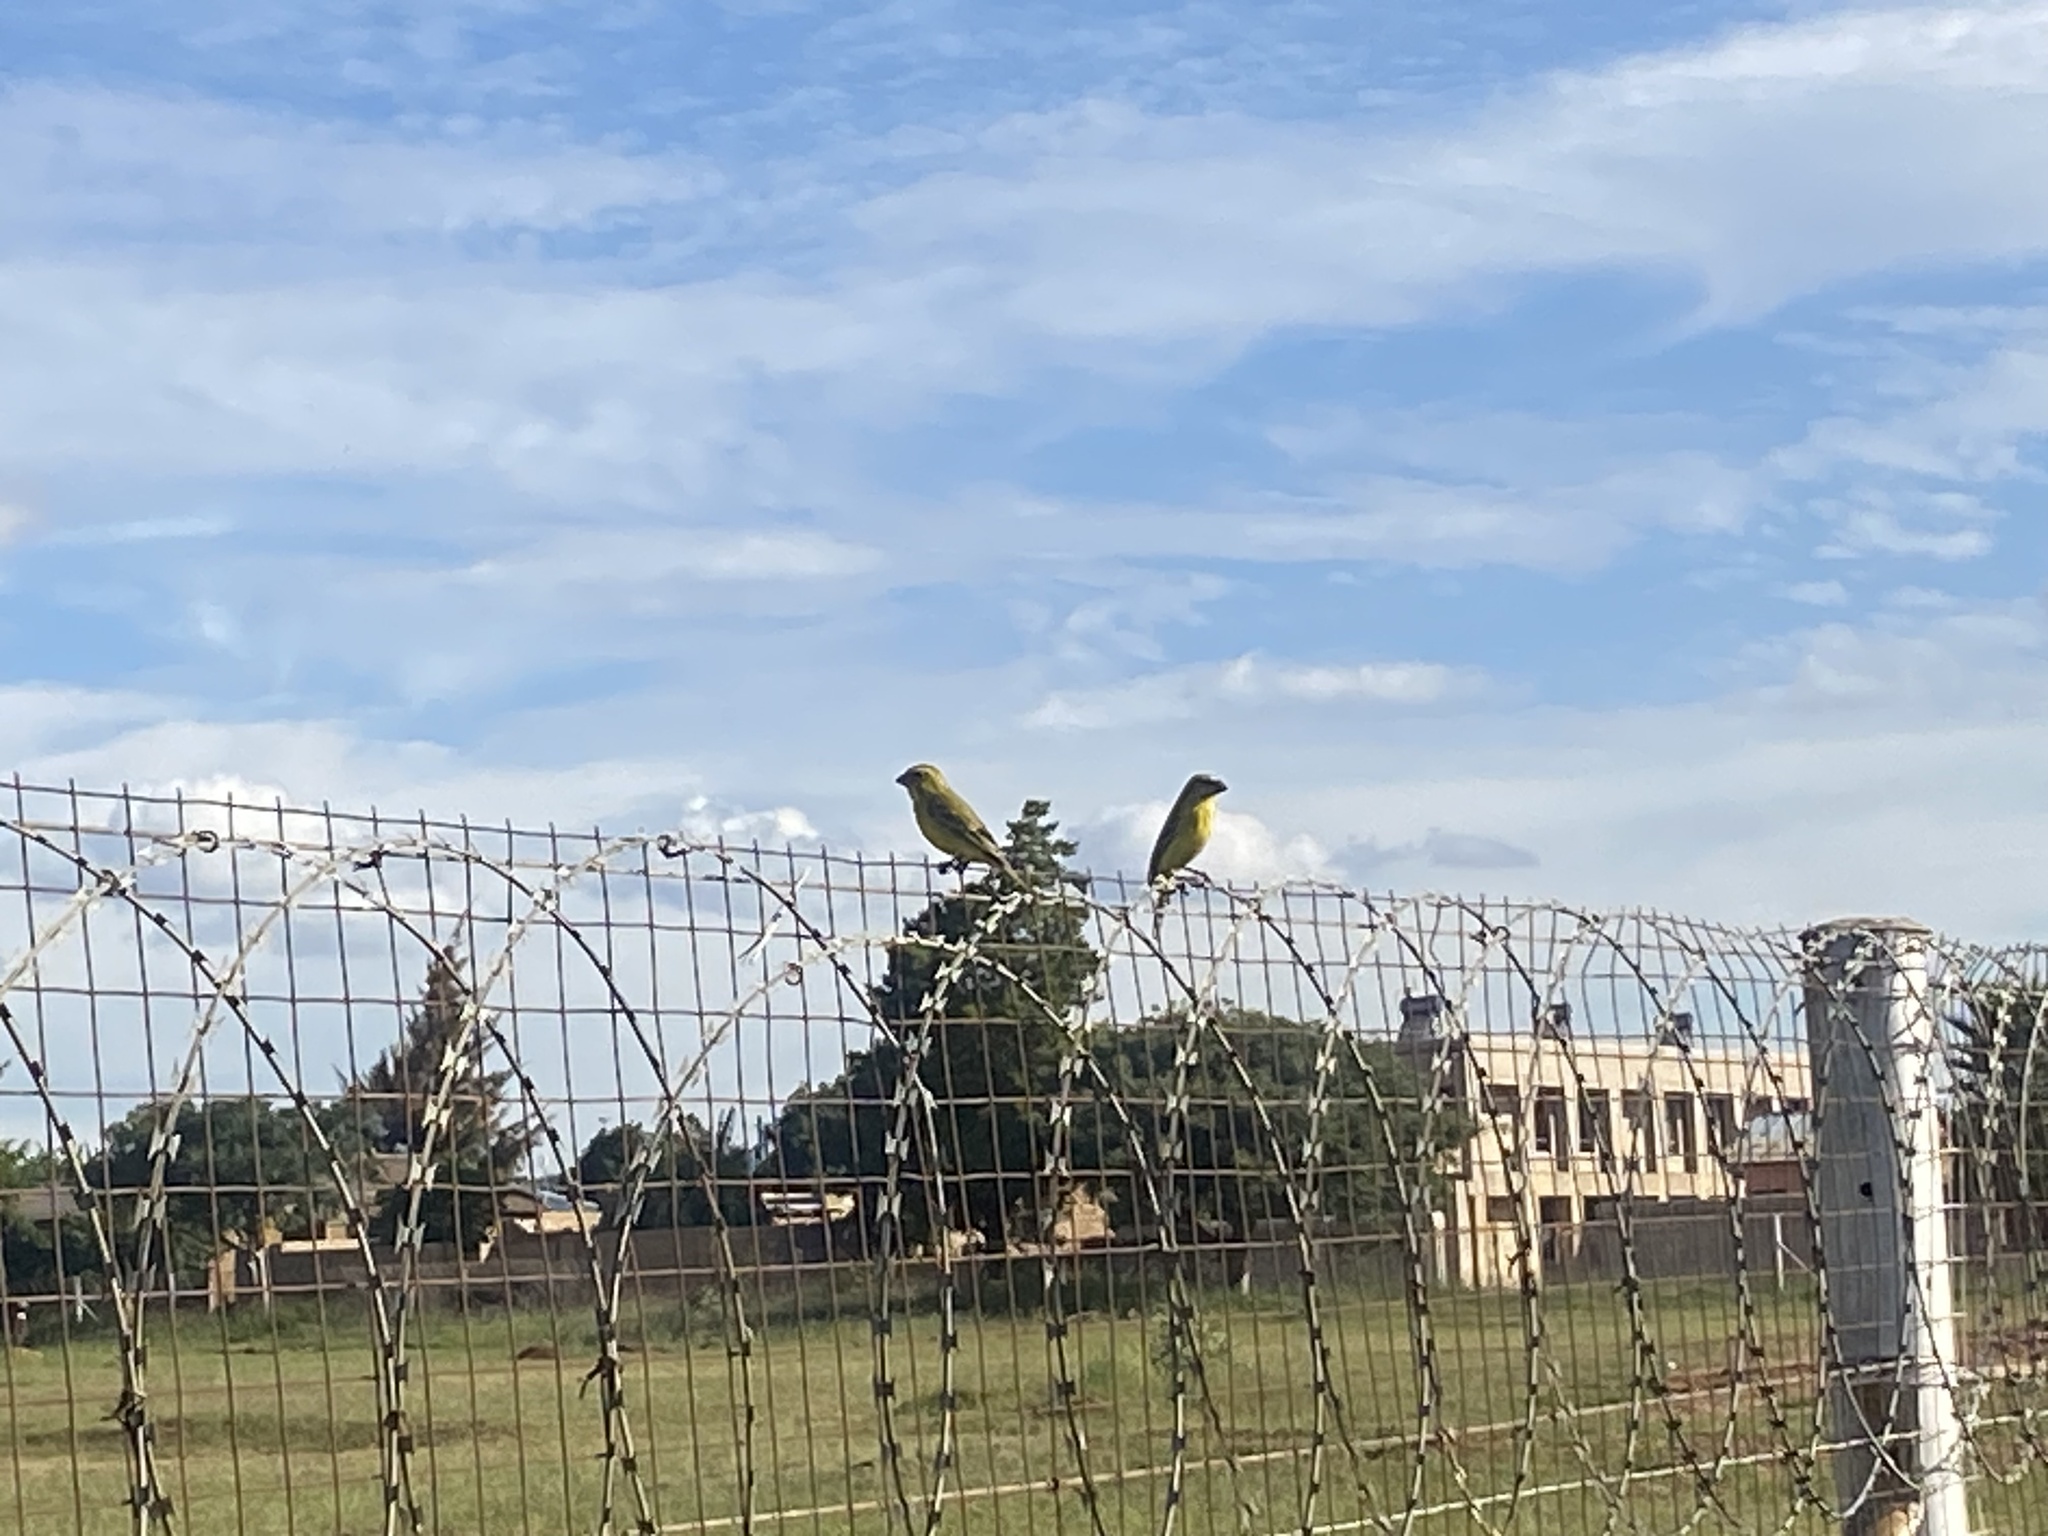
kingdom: Animalia
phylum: Chordata
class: Aves
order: Passeriformes
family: Fringillidae
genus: Crithagra
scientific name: Crithagra sulphurata
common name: Brimstone canary
